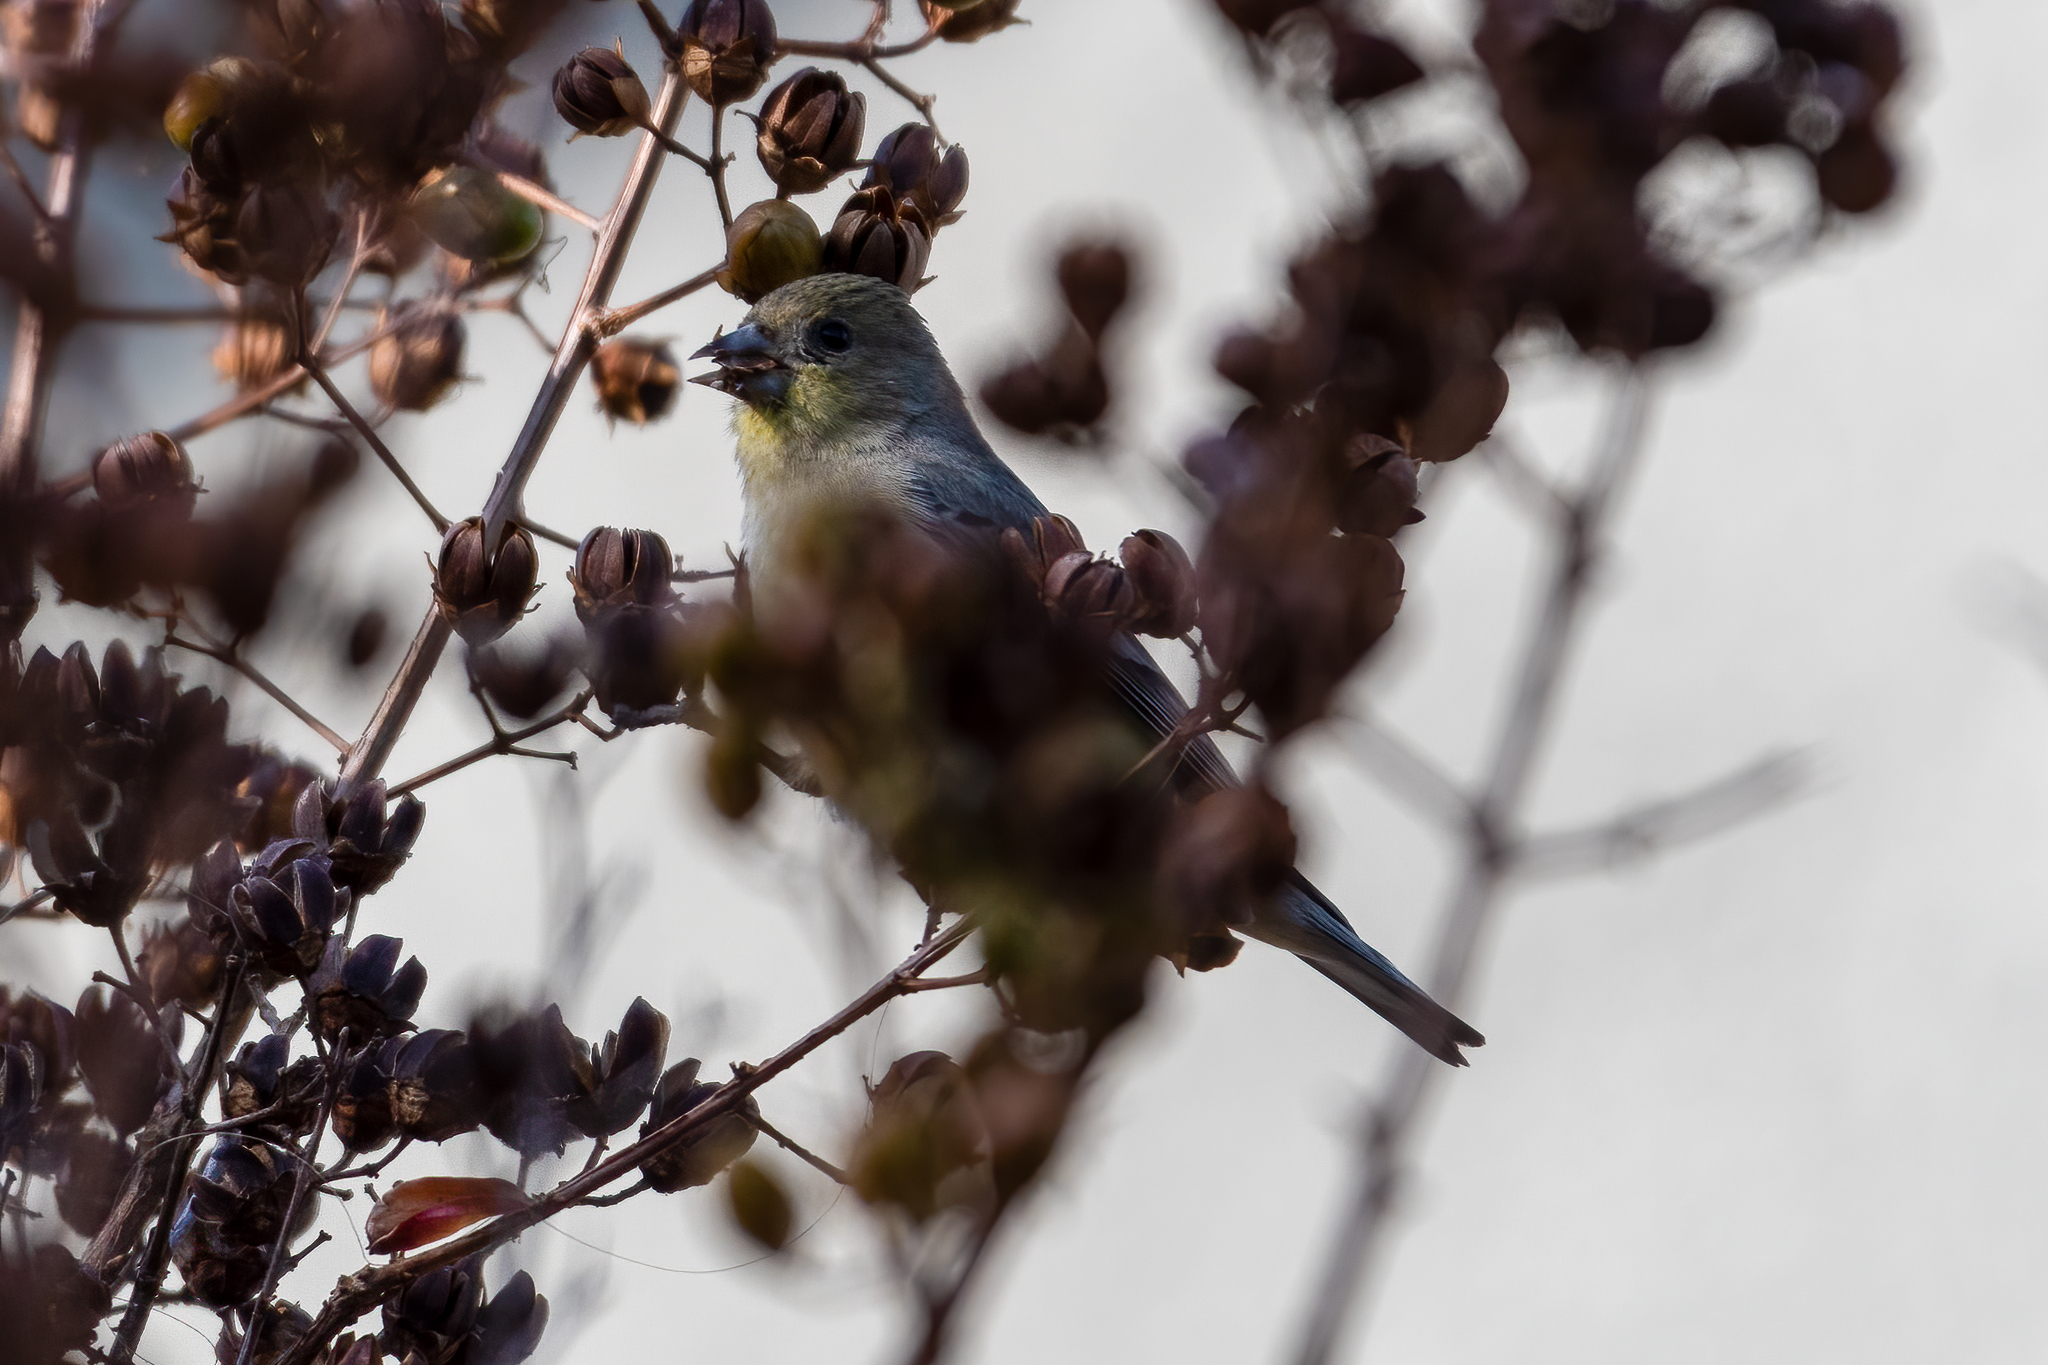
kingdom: Animalia
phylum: Chordata
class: Aves
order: Passeriformes
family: Fringillidae
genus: Spinus
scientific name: Spinus psaltria
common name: Lesser goldfinch
